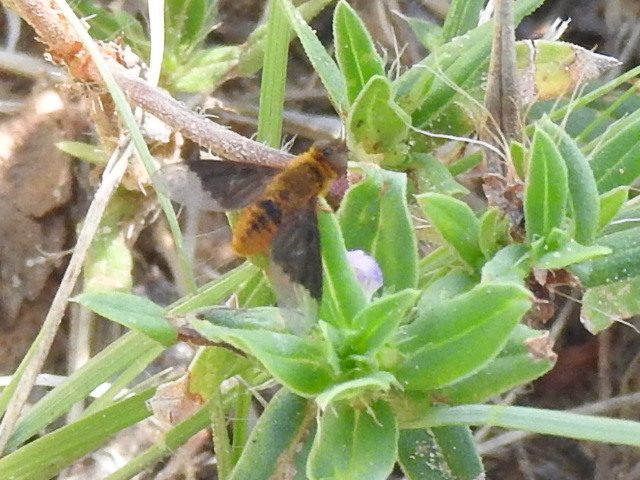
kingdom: Animalia
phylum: Arthropoda
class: Insecta
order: Diptera
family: Bombyliidae
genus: Chrysanthrax
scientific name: Chrysanthrax cypris
